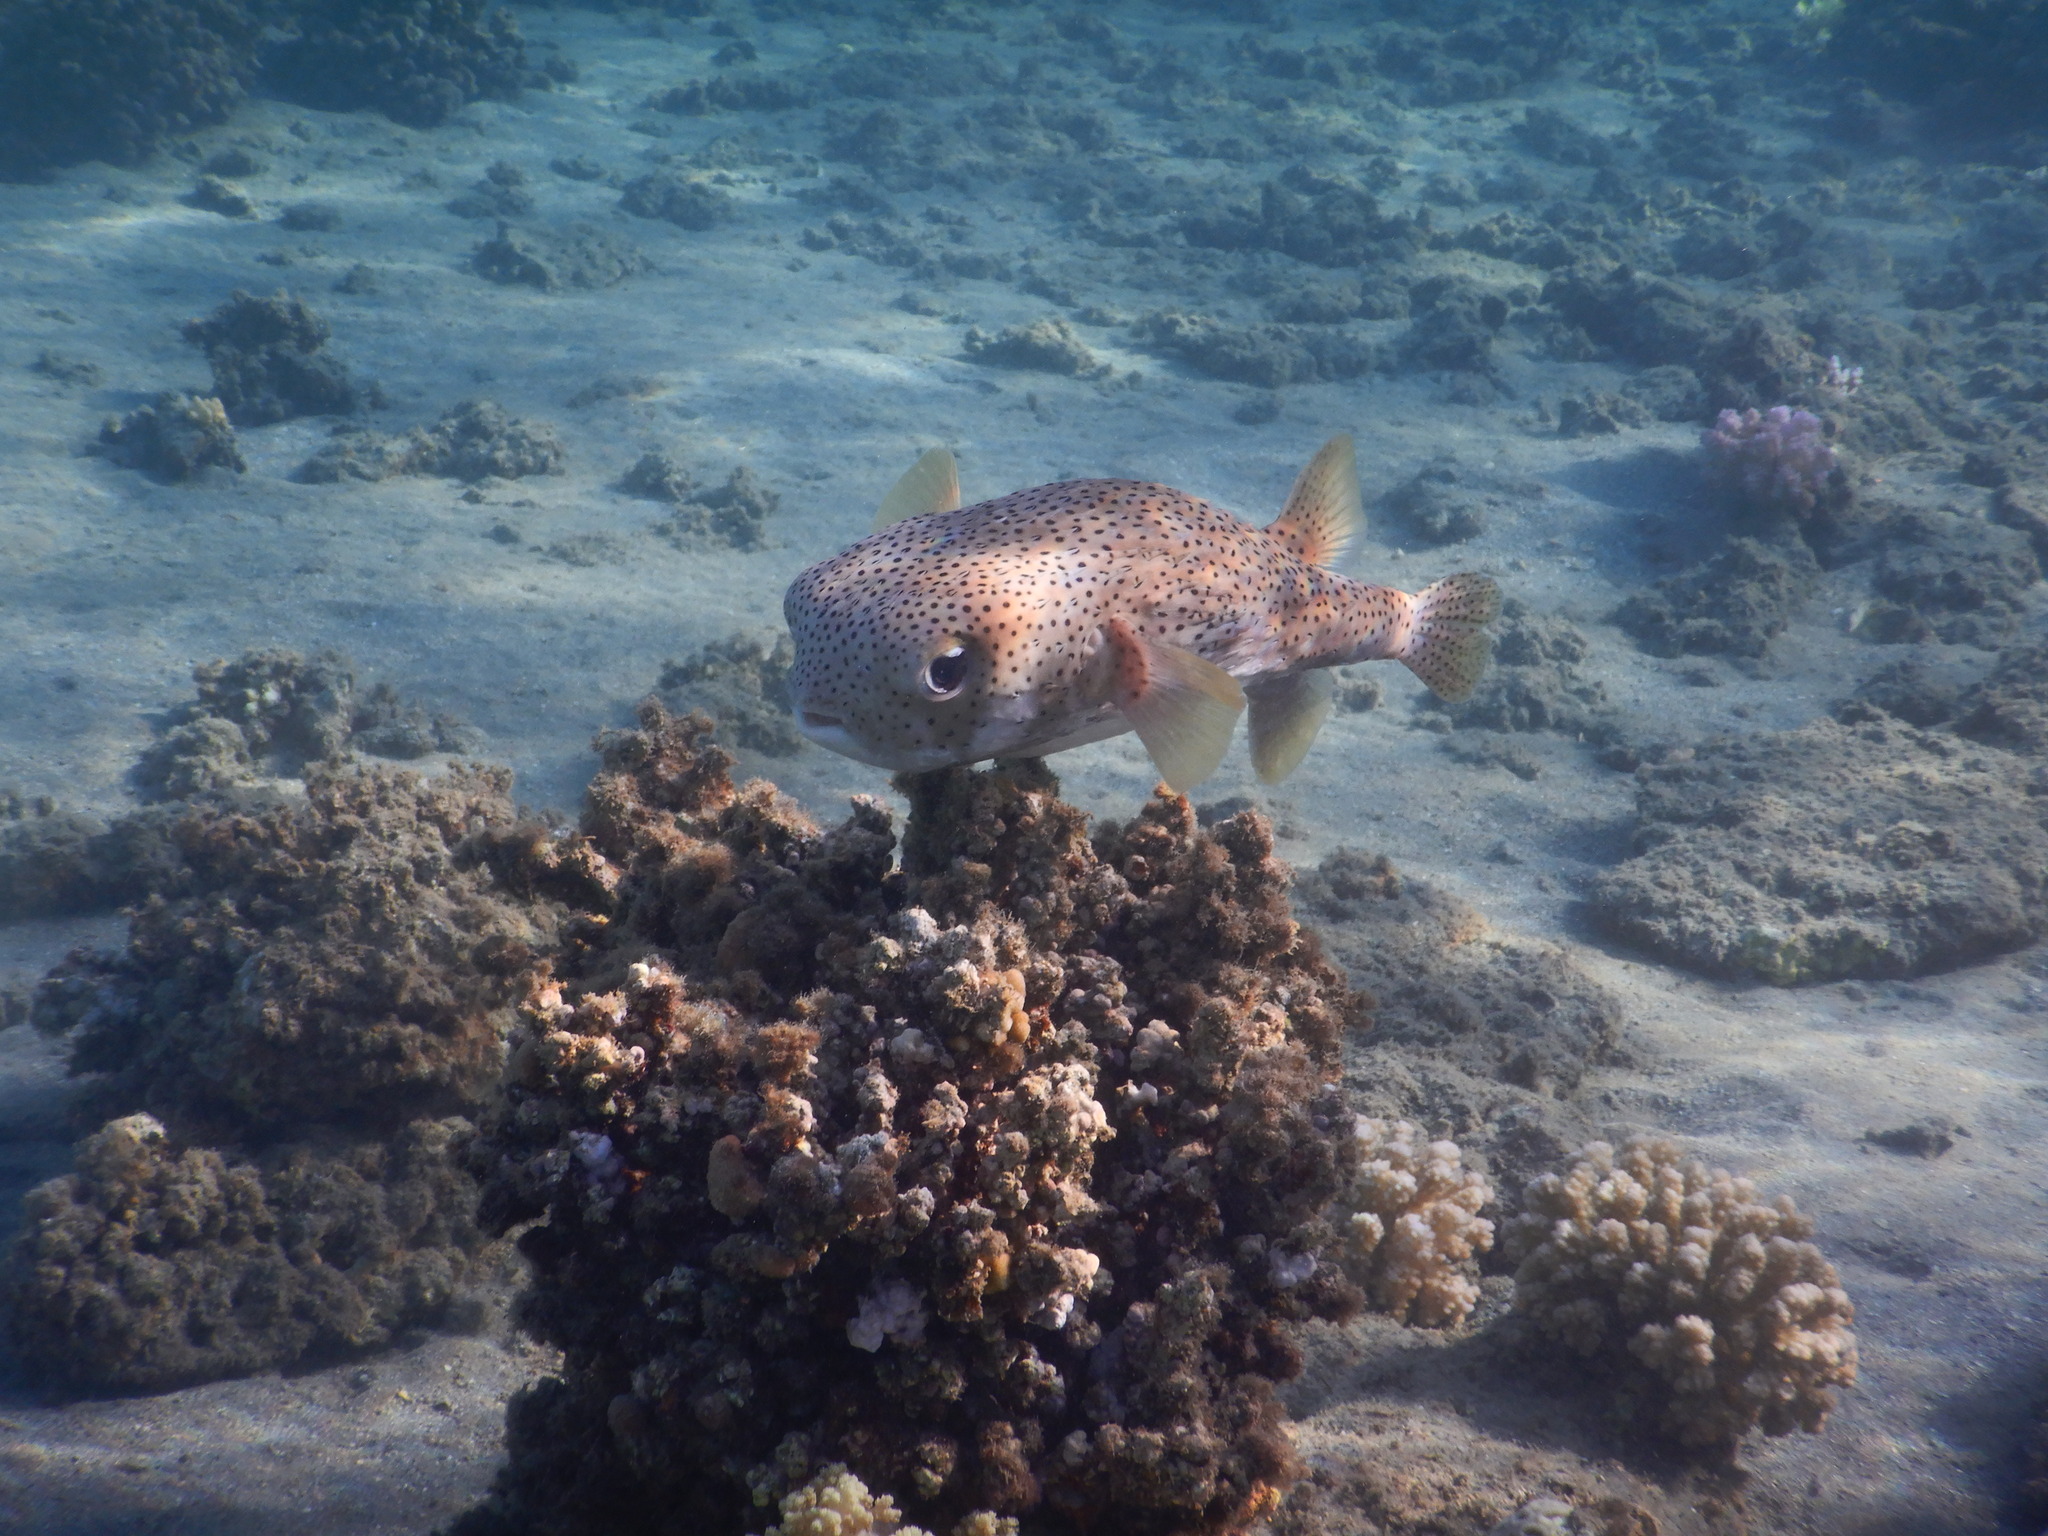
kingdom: Animalia
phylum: Chordata
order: Tetraodontiformes
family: Diodontidae
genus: Diodon
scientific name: Diodon hystrix
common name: Giant porcupinefish
